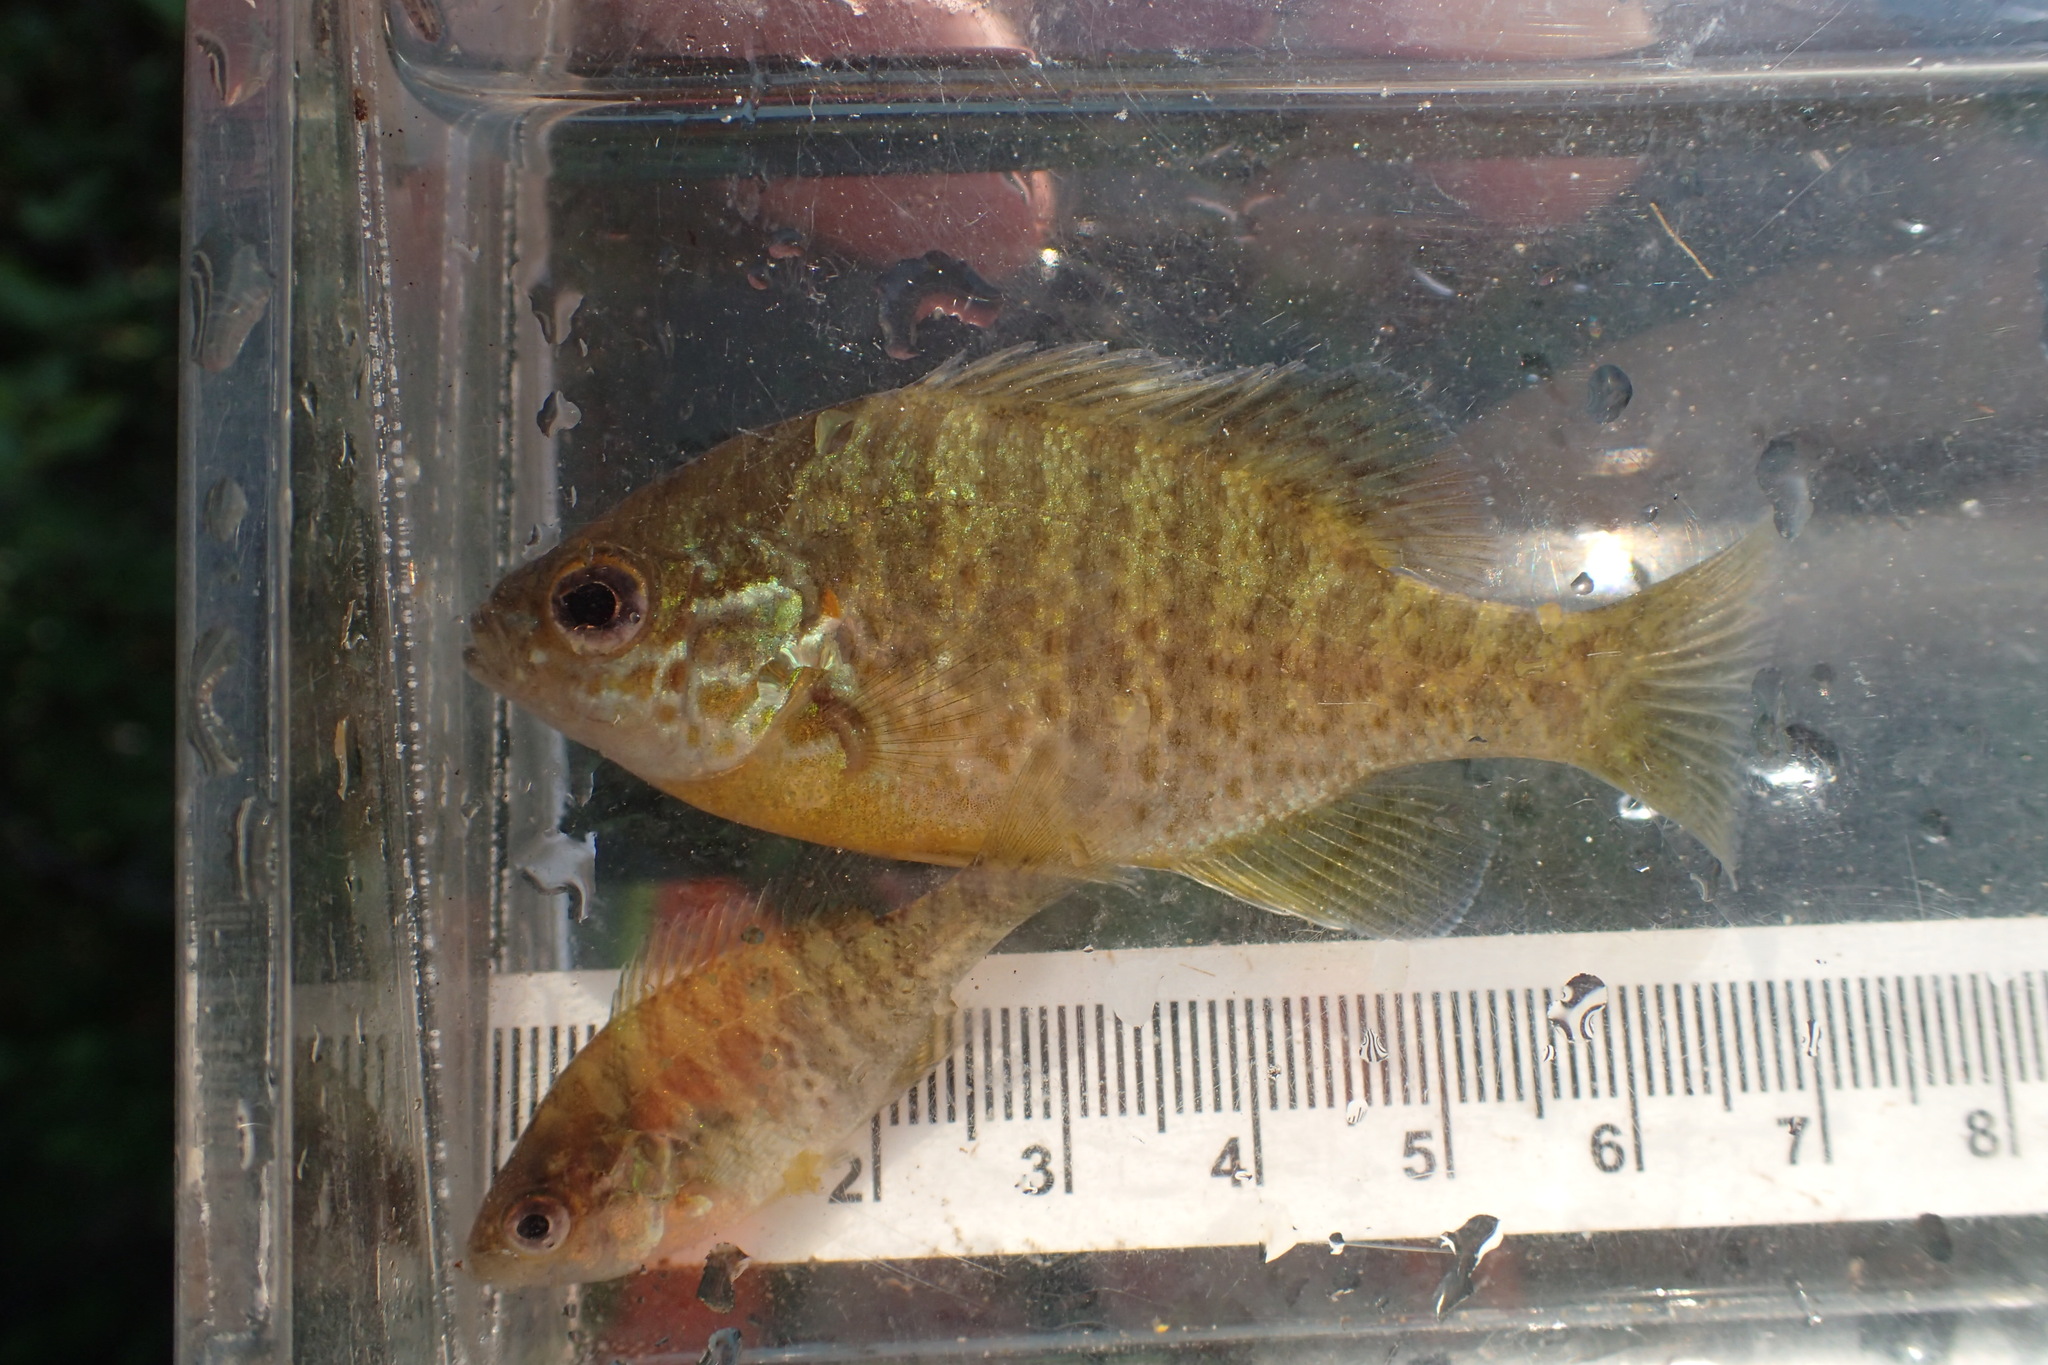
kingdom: Animalia
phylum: Chordata
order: Perciformes
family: Centrarchidae
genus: Lepomis
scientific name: Lepomis gibbosus
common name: Pumpkinseed
